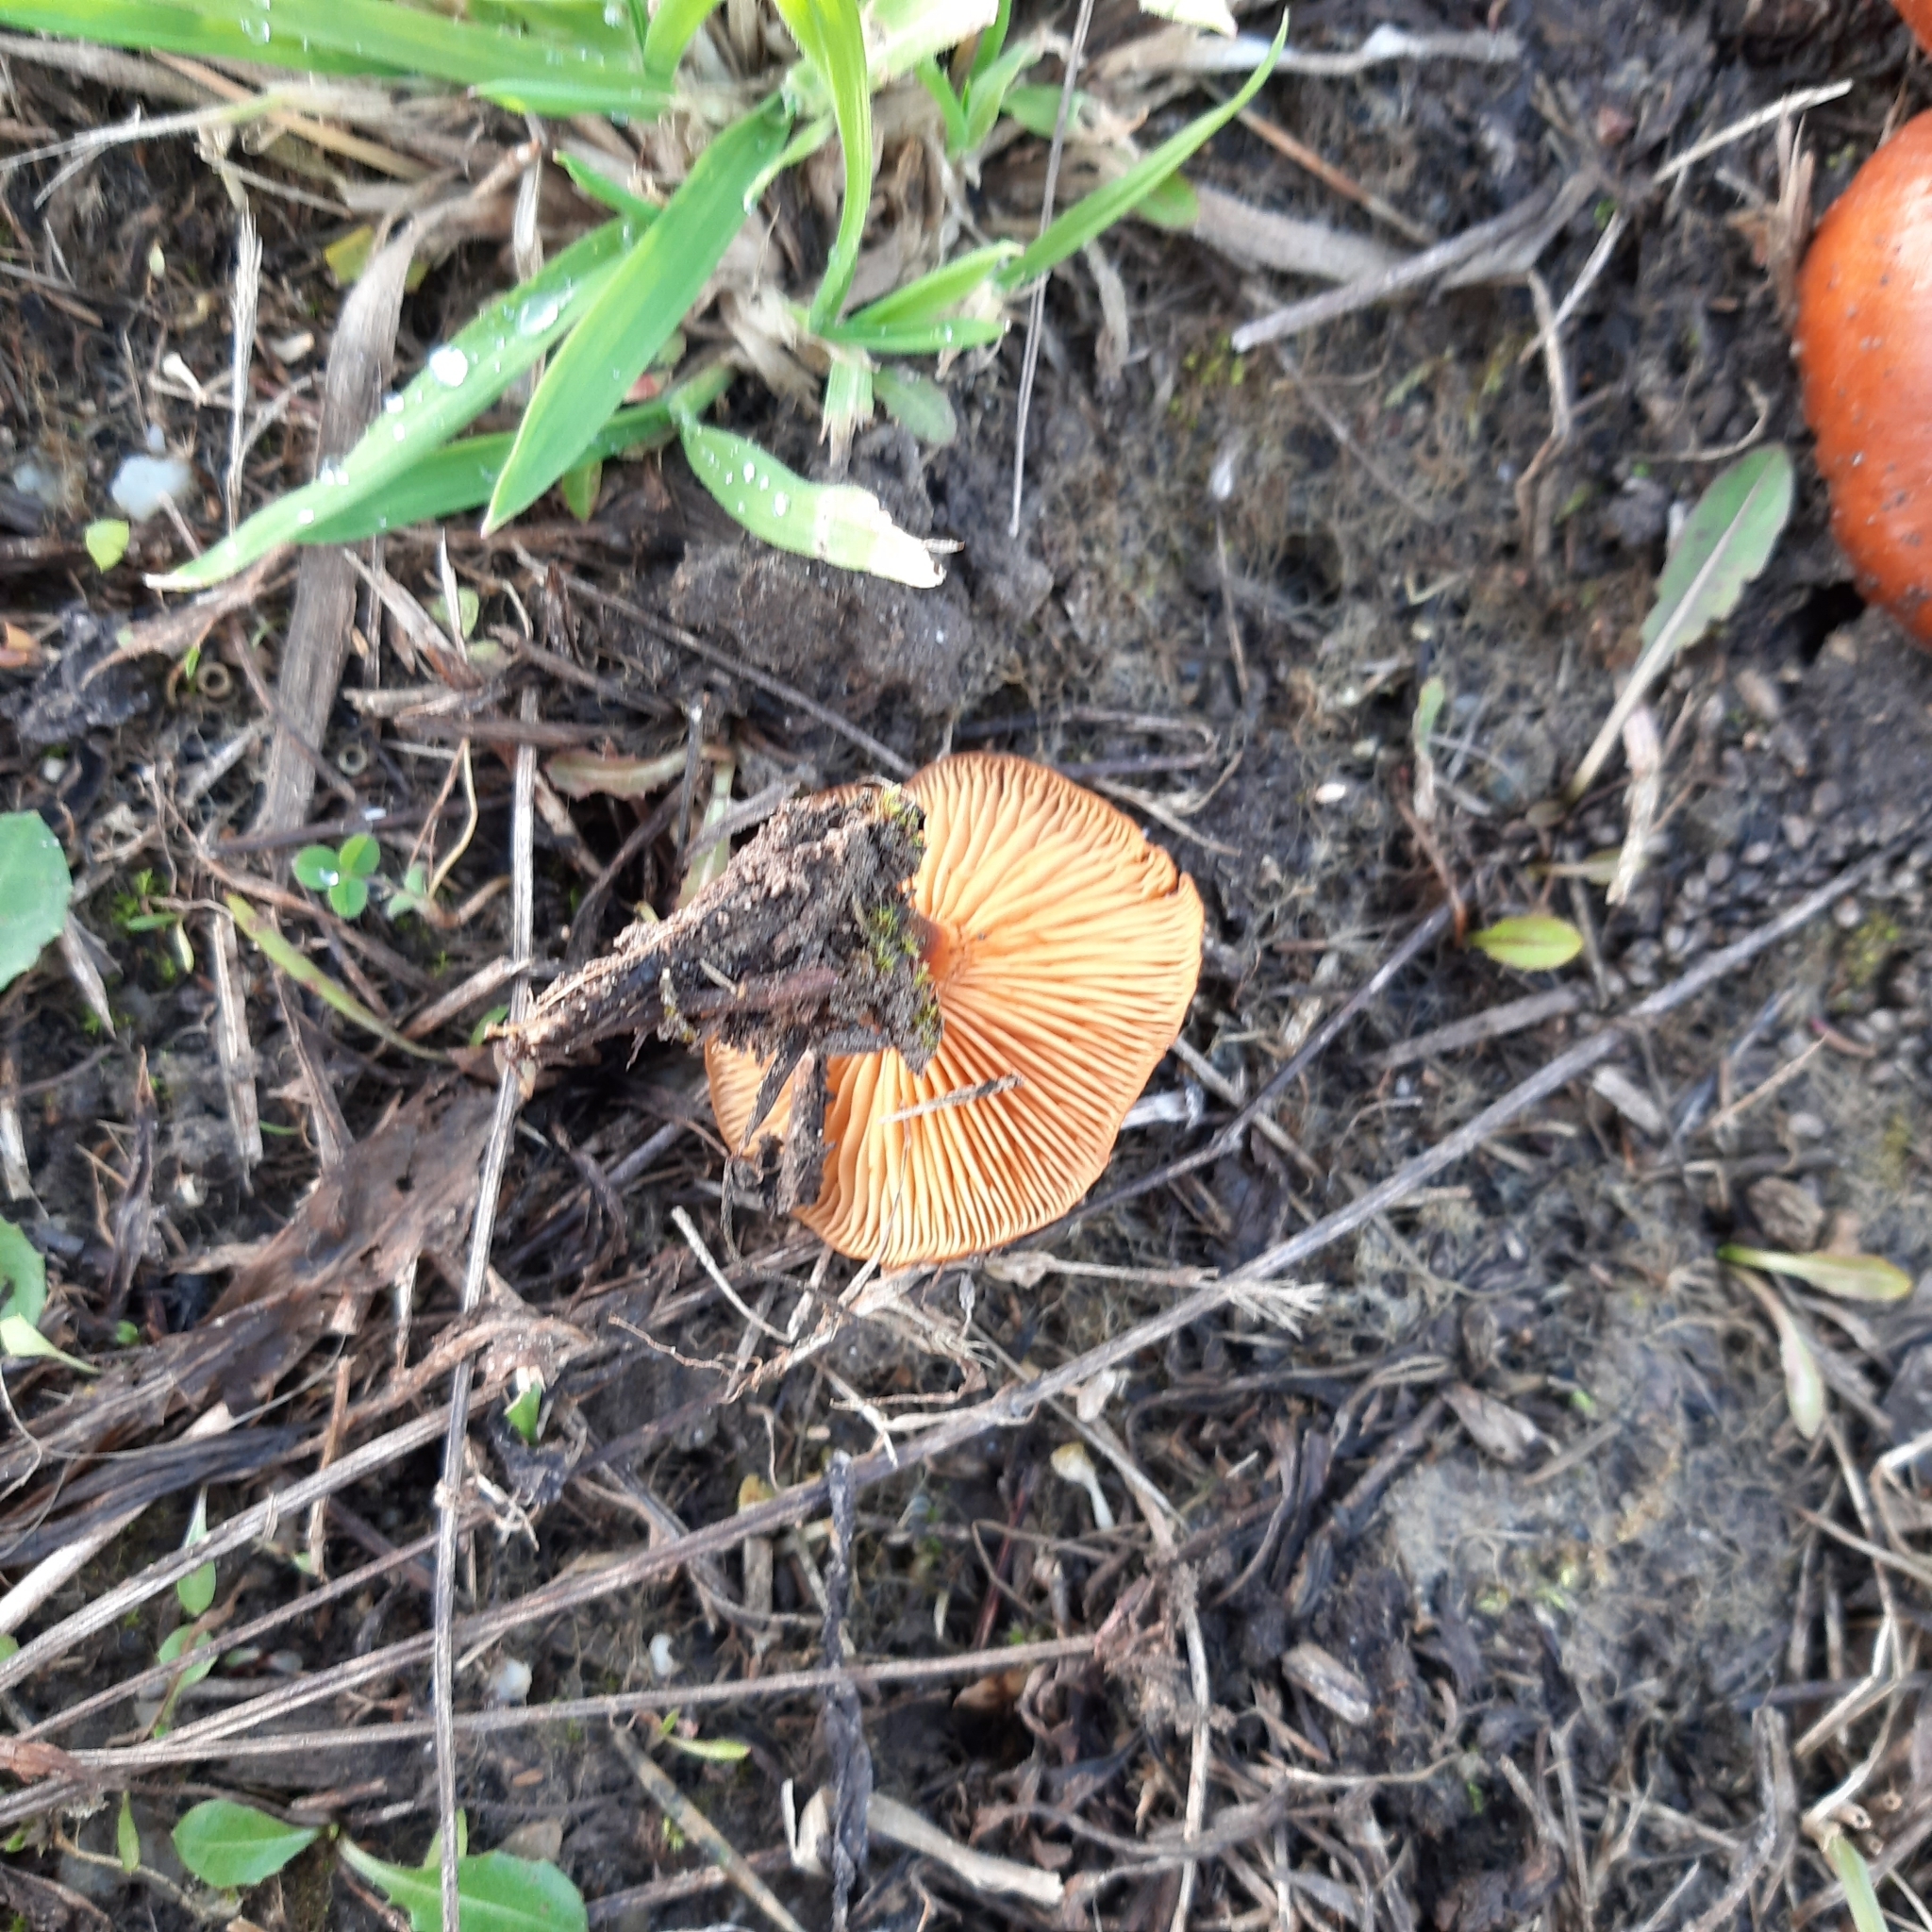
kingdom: Fungi
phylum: Basidiomycota
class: Agaricomycetes
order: Agaricales
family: Physalacriaceae
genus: Flammulina
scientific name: Flammulina
